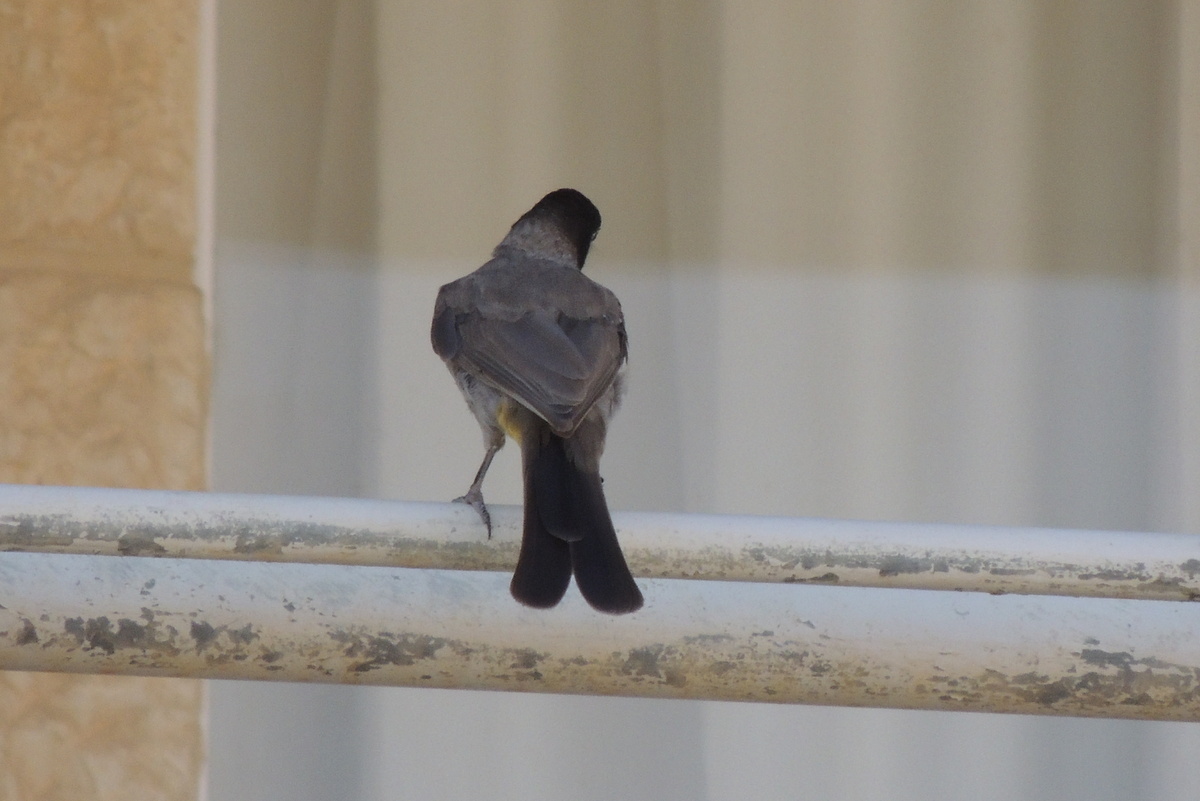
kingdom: Animalia
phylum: Chordata
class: Aves
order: Passeriformes
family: Pycnonotidae
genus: Pycnonotus
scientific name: Pycnonotus xanthopygos
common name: White-spectacled bulbul
